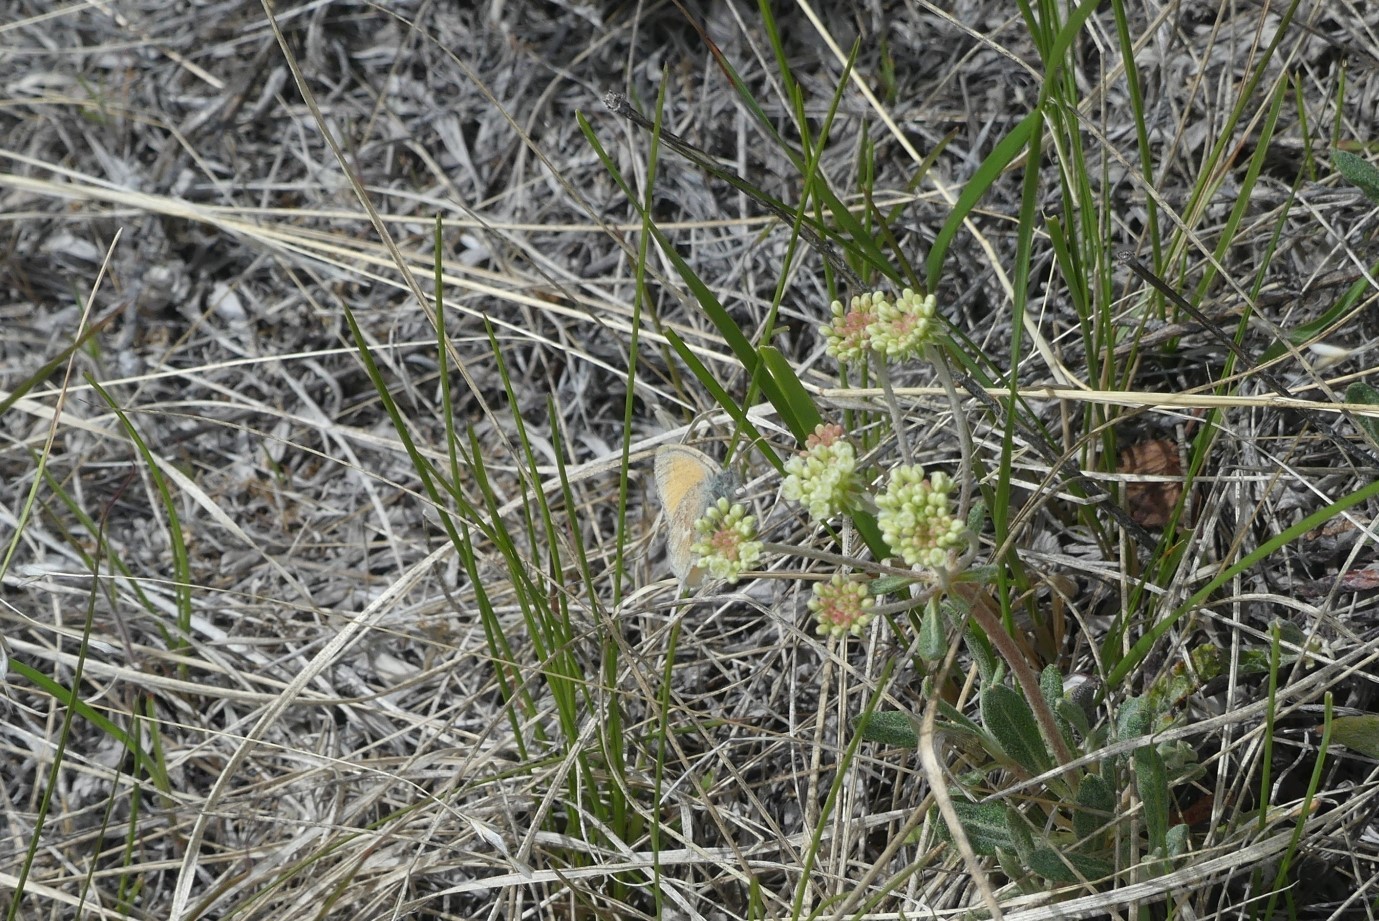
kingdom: Animalia
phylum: Arthropoda
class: Insecta
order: Lepidoptera
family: Nymphalidae
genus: Coenonympha
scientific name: Coenonympha california
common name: Common ringlet
